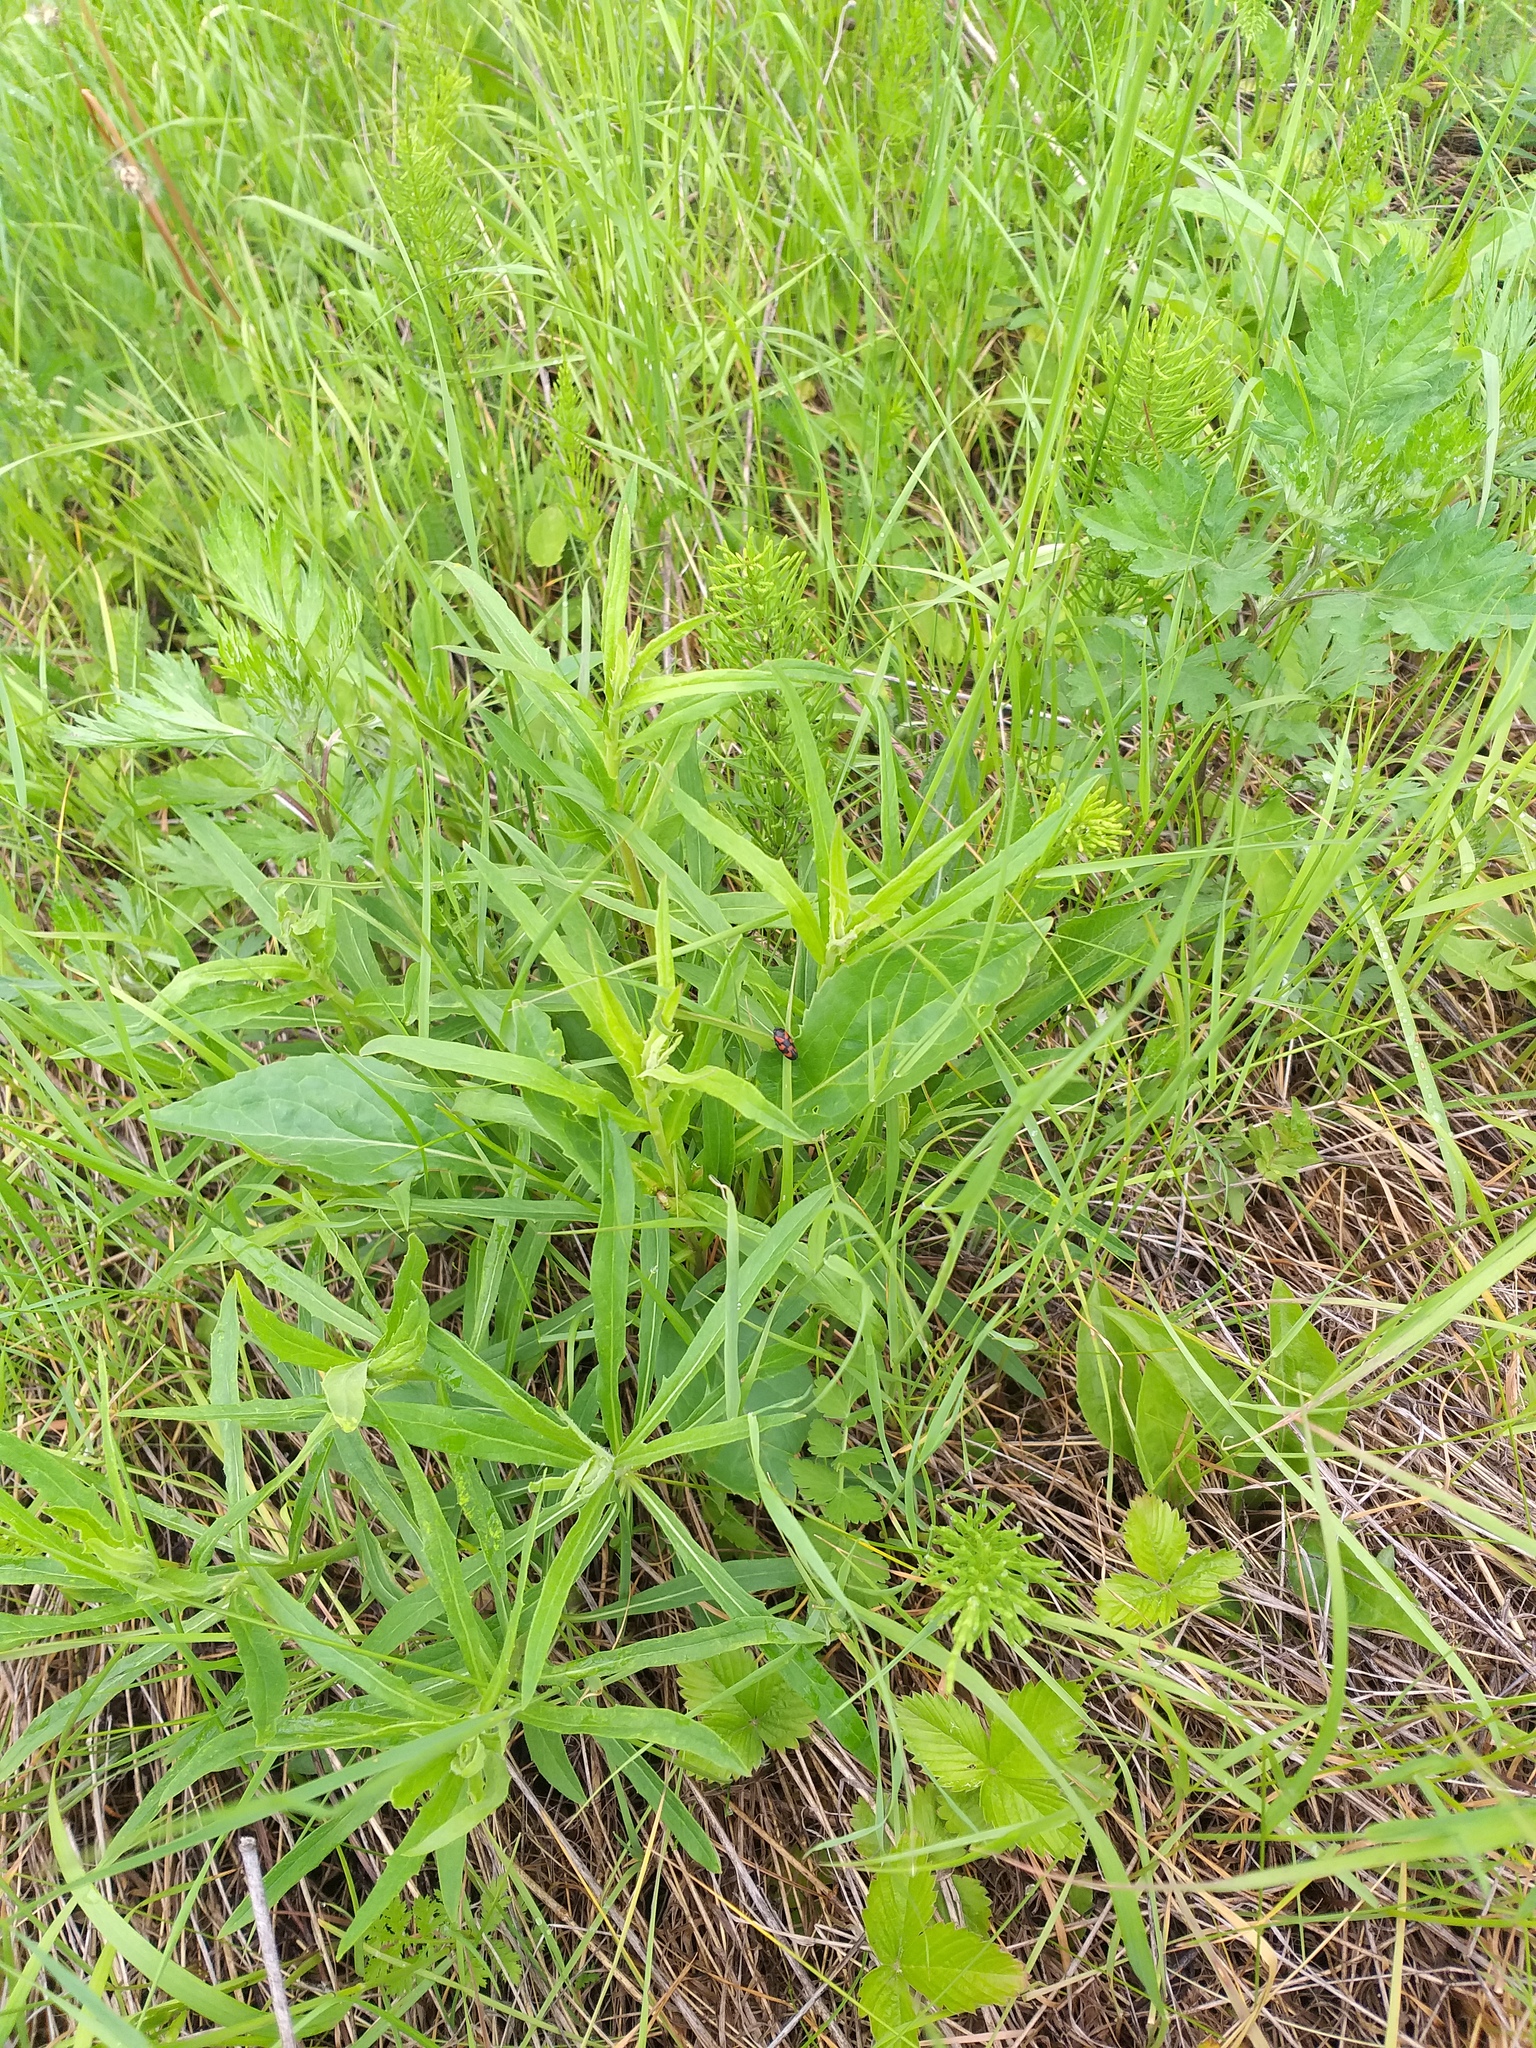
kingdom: Plantae
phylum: Tracheophyta
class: Magnoliopsida
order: Asterales
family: Asteraceae
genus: Hieracium
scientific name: Hieracium umbellatum
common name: Northern hawkweed
